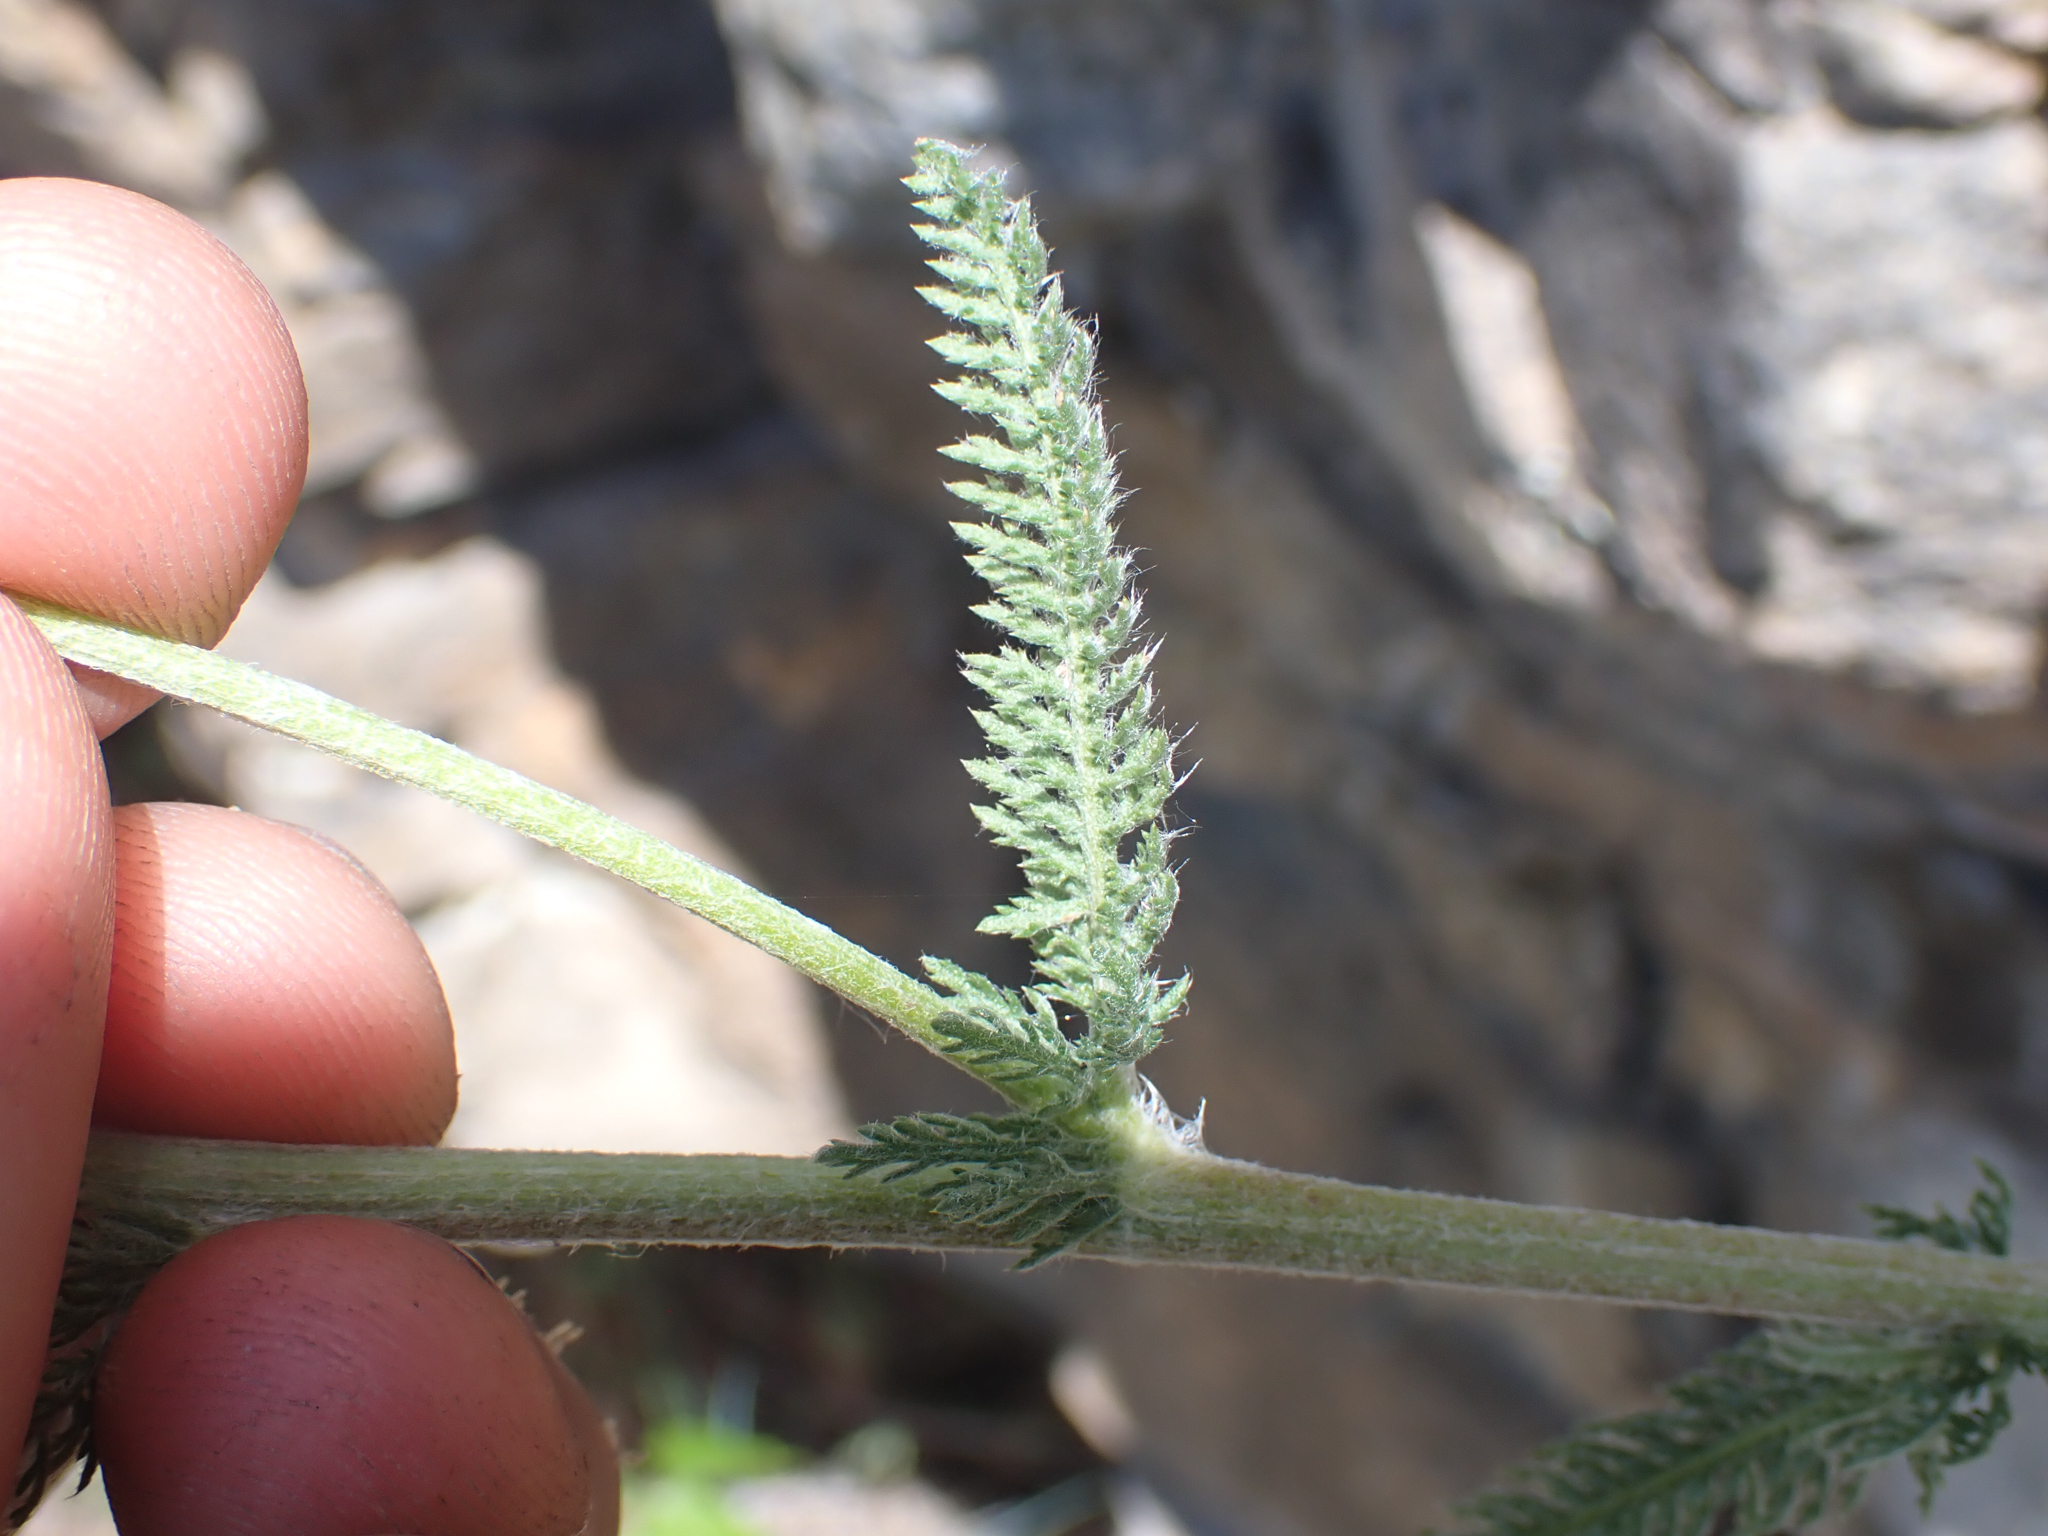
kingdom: Plantae
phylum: Tracheophyta
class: Magnoliopsida
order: Asterales
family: Asteraceae
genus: Achillea
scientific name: Achillea millefolium
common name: Yarrow
